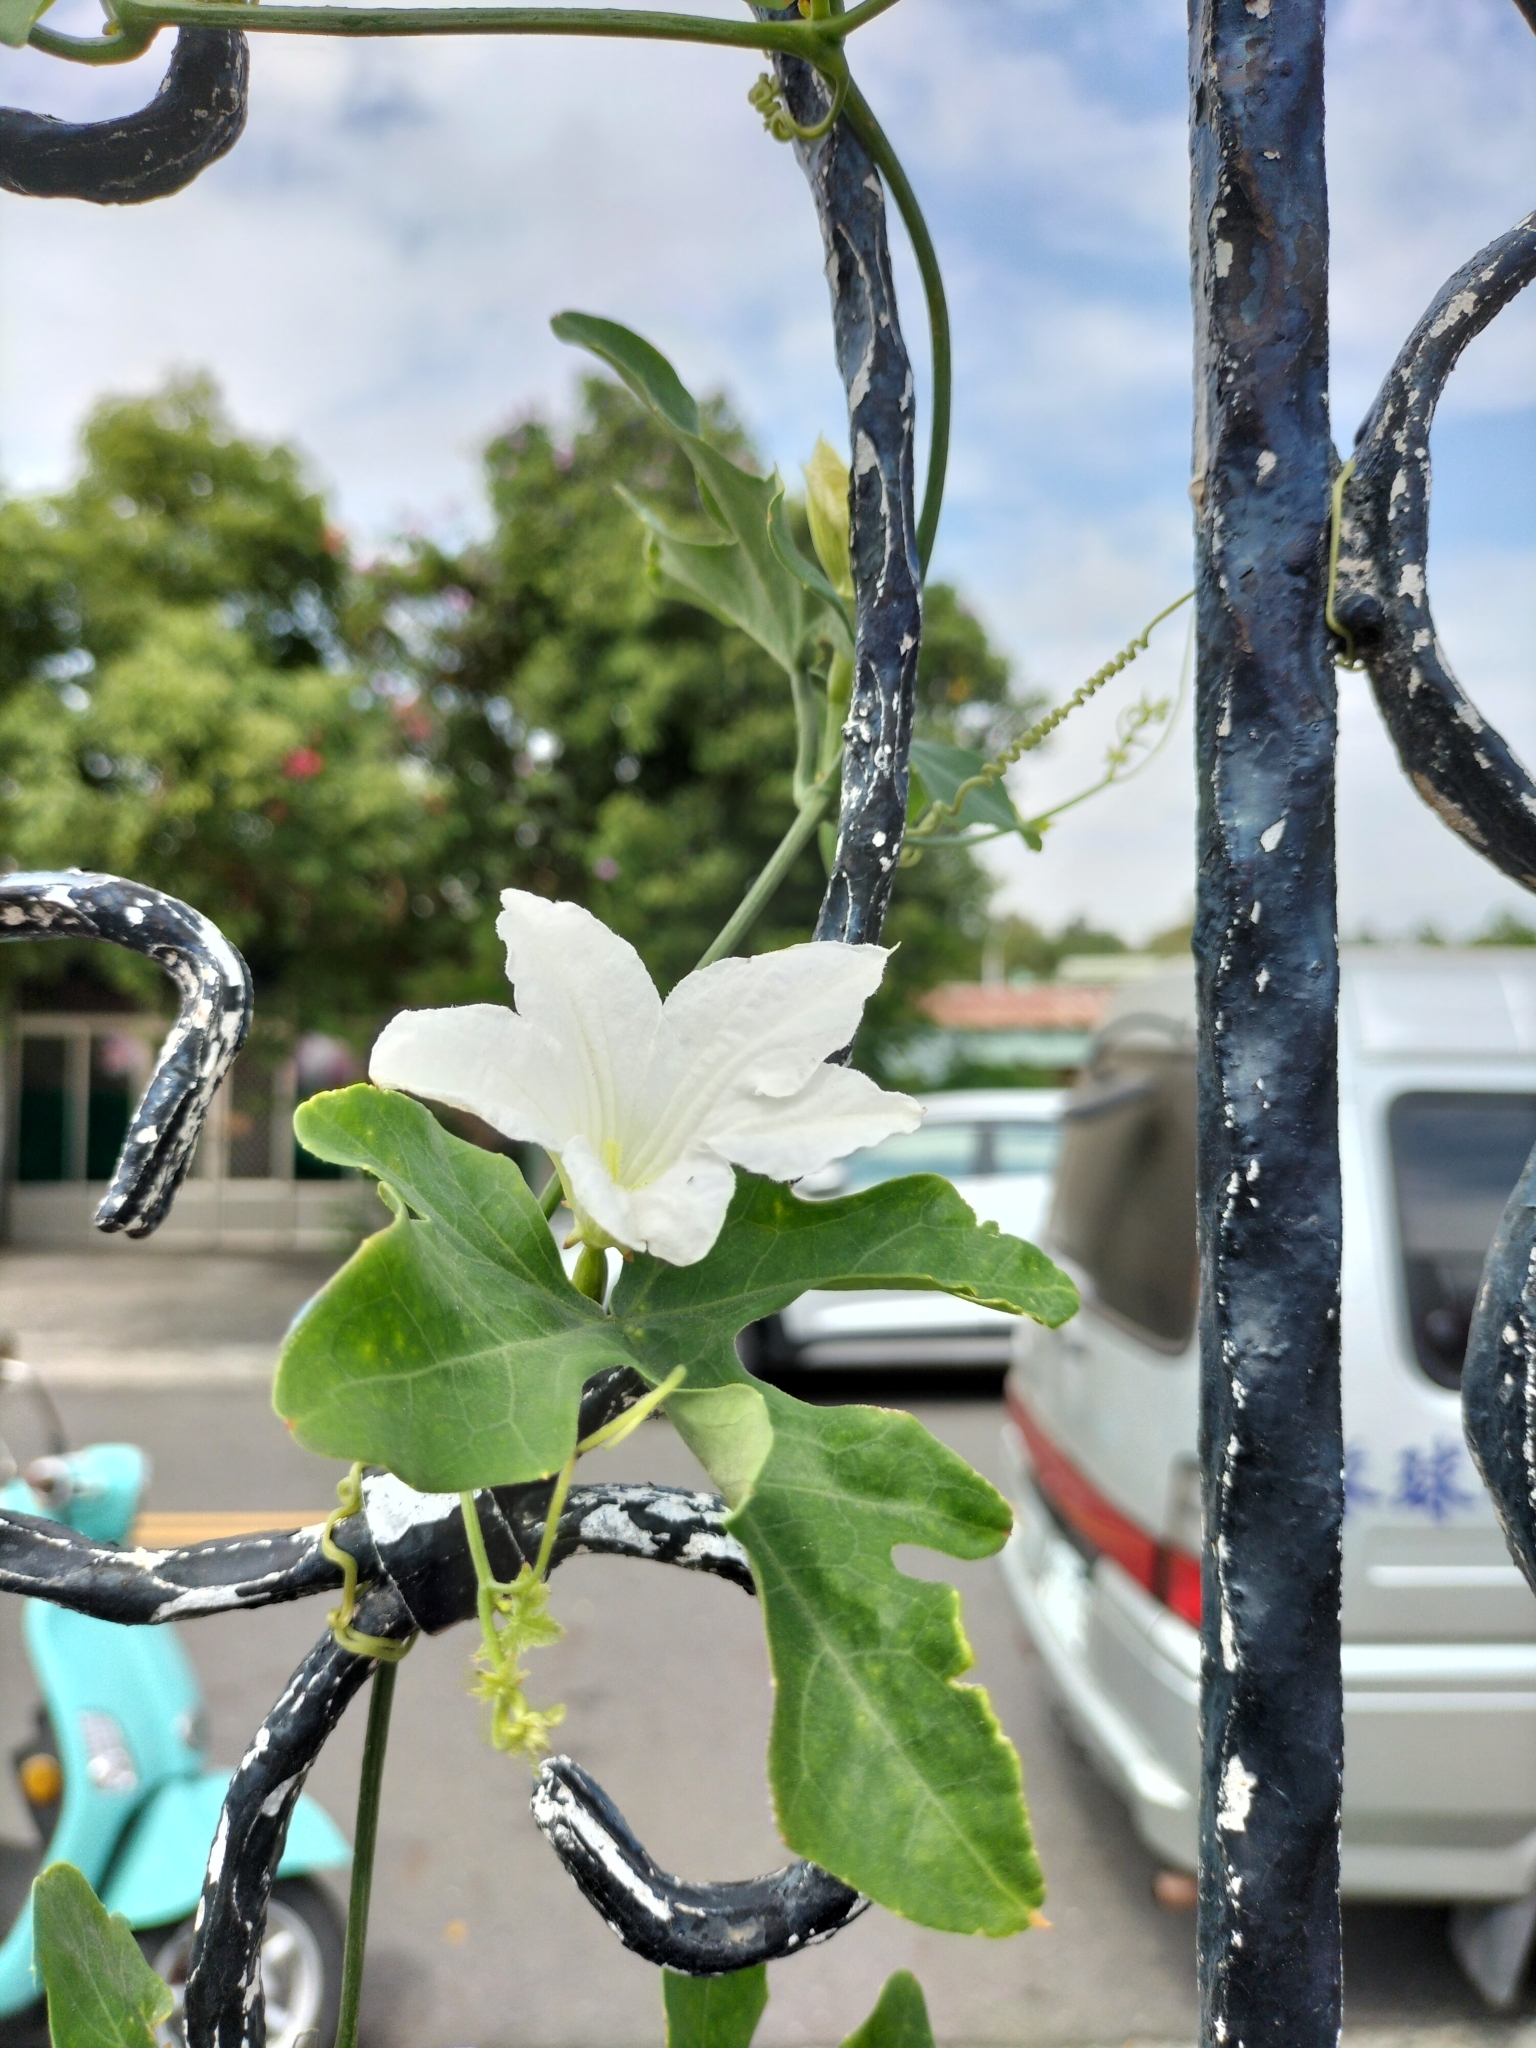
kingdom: Plantae
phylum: Tracheophyta
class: Magnoliopsida
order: Cucurbitales
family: Cucurbitaceae
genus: Coccinia
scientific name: Coccinia grandis
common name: Ivy gourd
